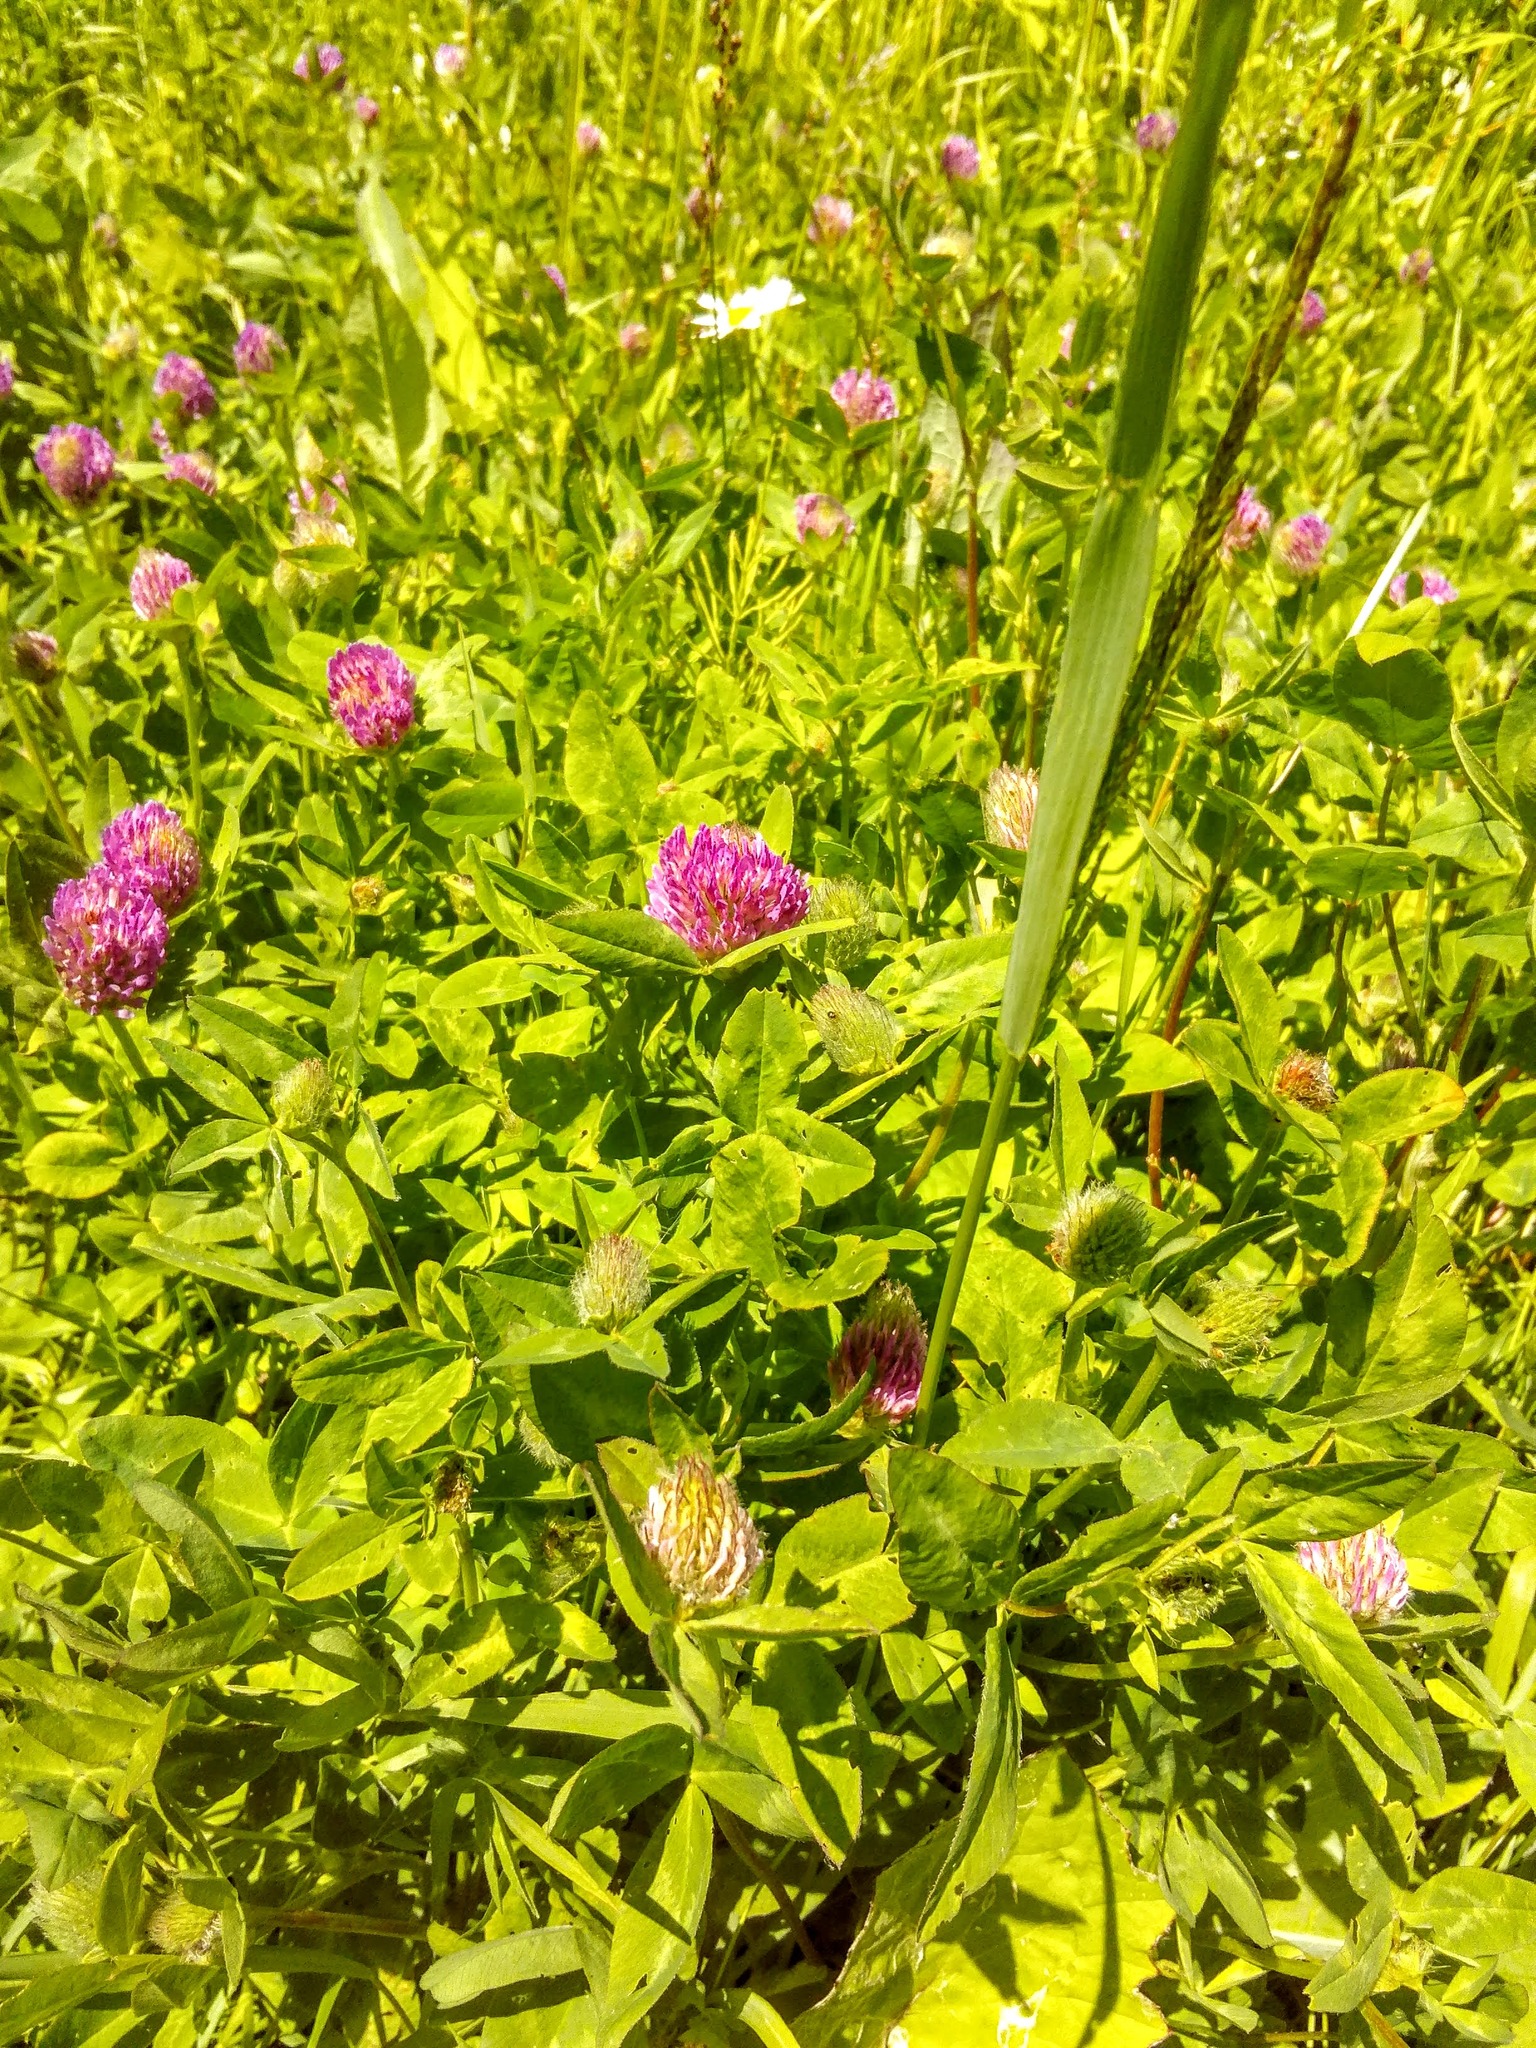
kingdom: Plantae
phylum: Tracheophyta
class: Magnoliopsida
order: Fabales
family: Fabaceae
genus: Trifolium
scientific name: Trifolium pratense
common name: Red clover
